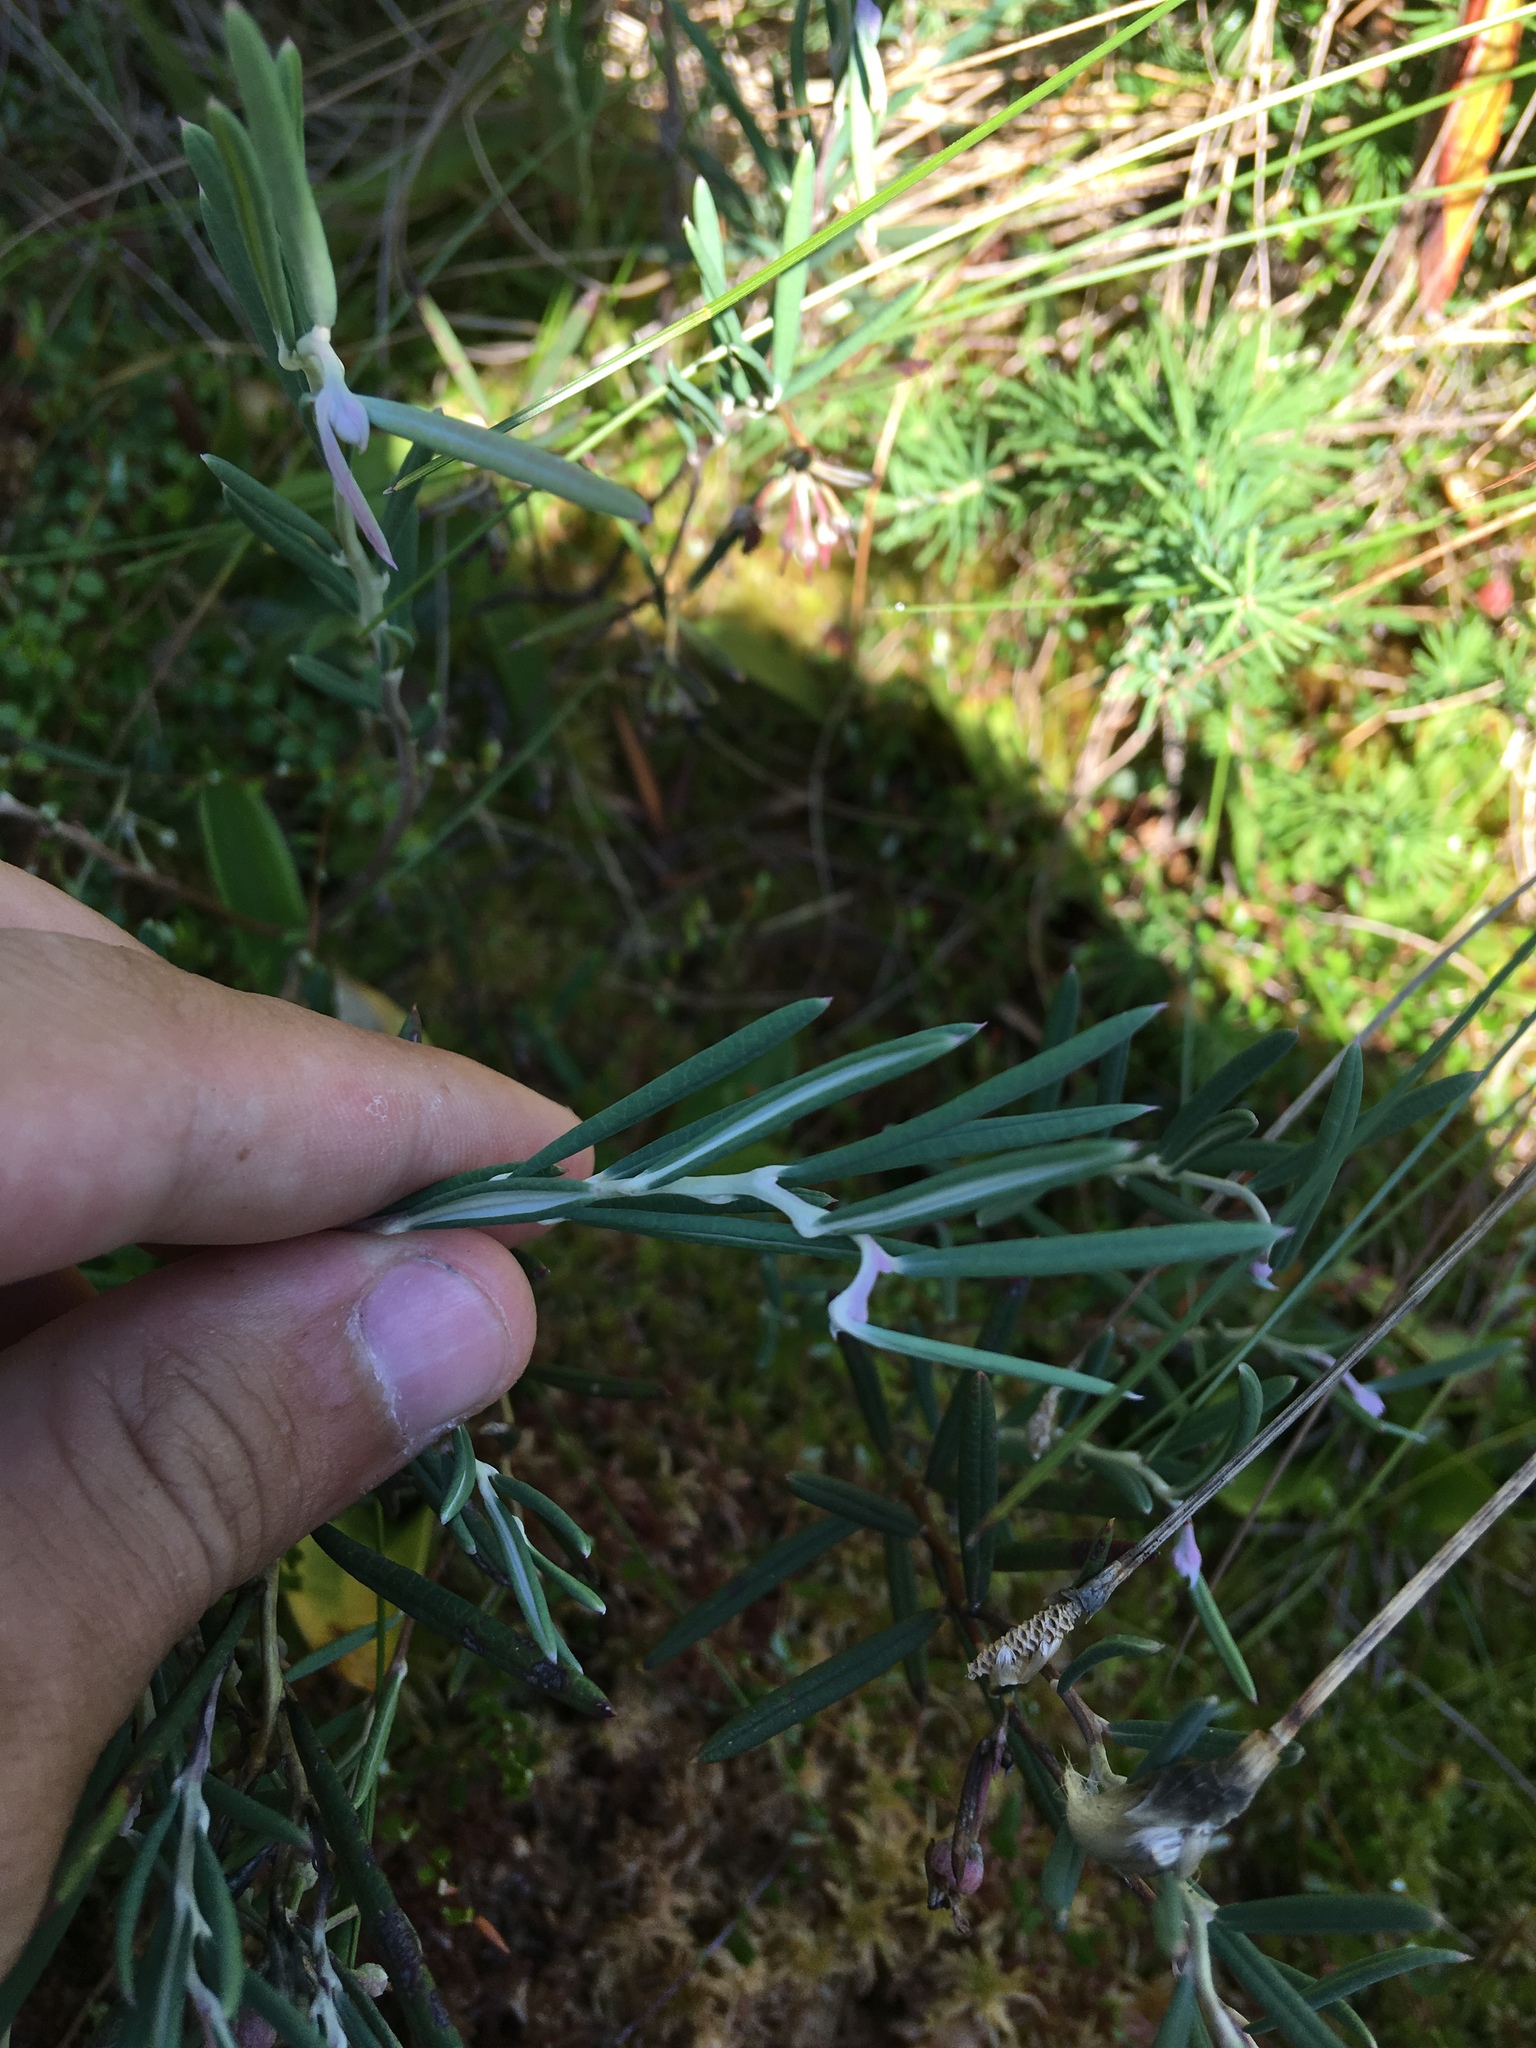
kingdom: Plantae
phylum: Tracheophyta
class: Magnoliopsida
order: Ericales
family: Ericaceae
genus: Andromeda
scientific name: Andromeda polifolia
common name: Bog-rosemary
